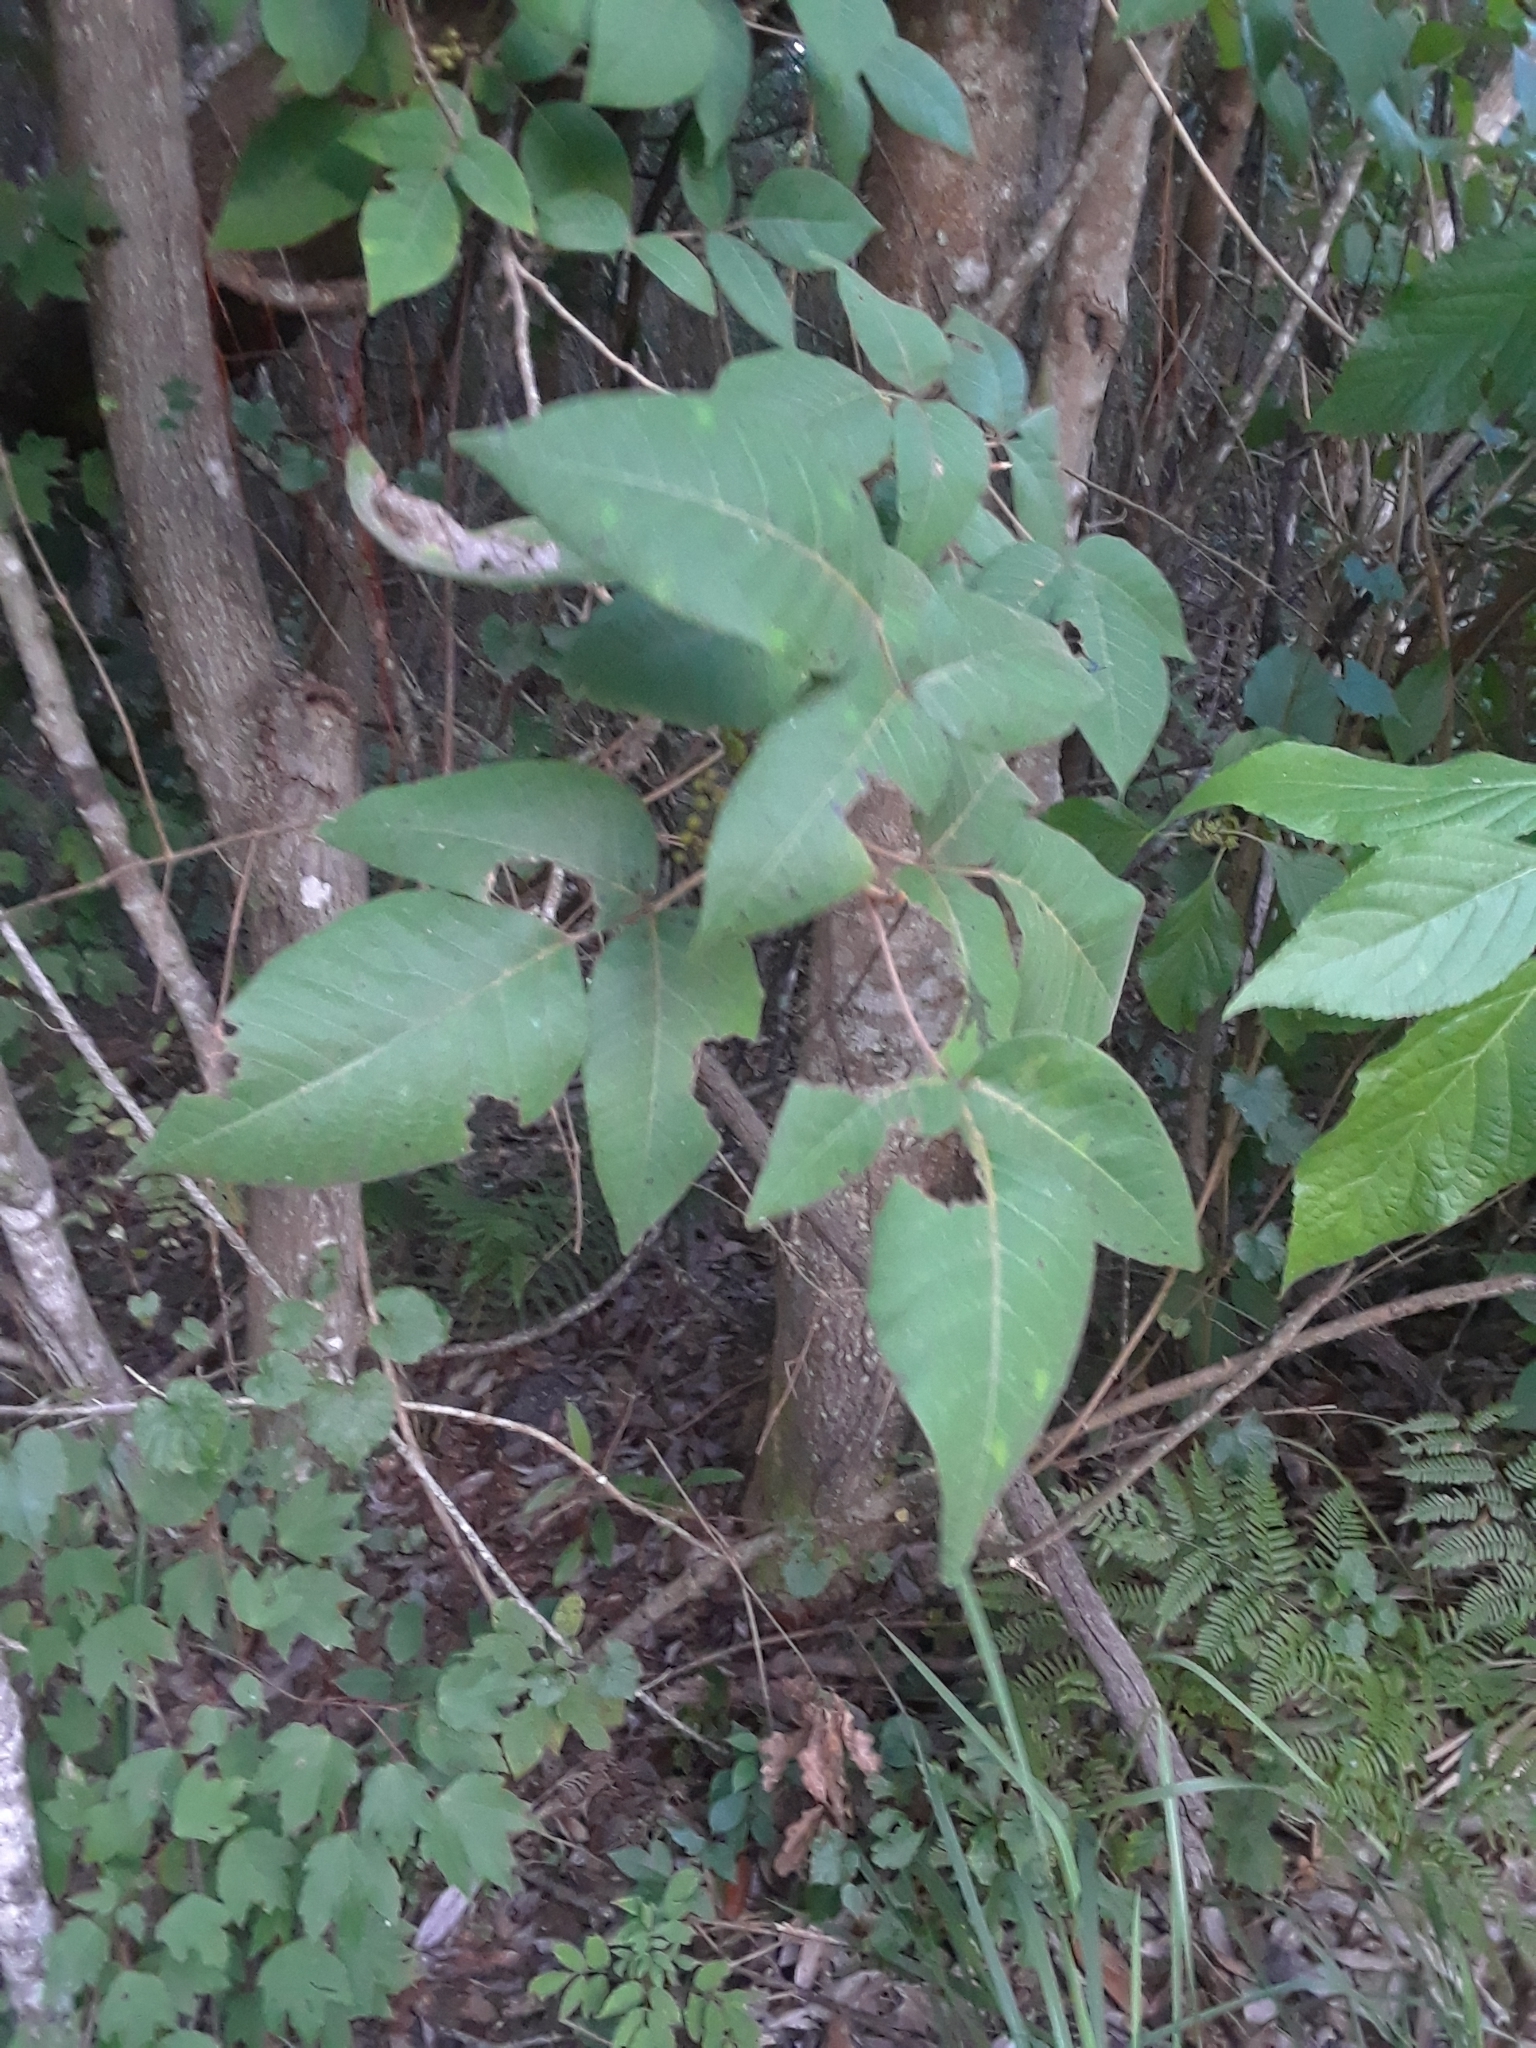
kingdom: Plantae
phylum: Tracheophyta
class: Magnoliopsida
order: Sapindales
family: Anacardiaceae
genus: Toxicodendron
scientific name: Toxicodendron radicans
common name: Poison ivy
